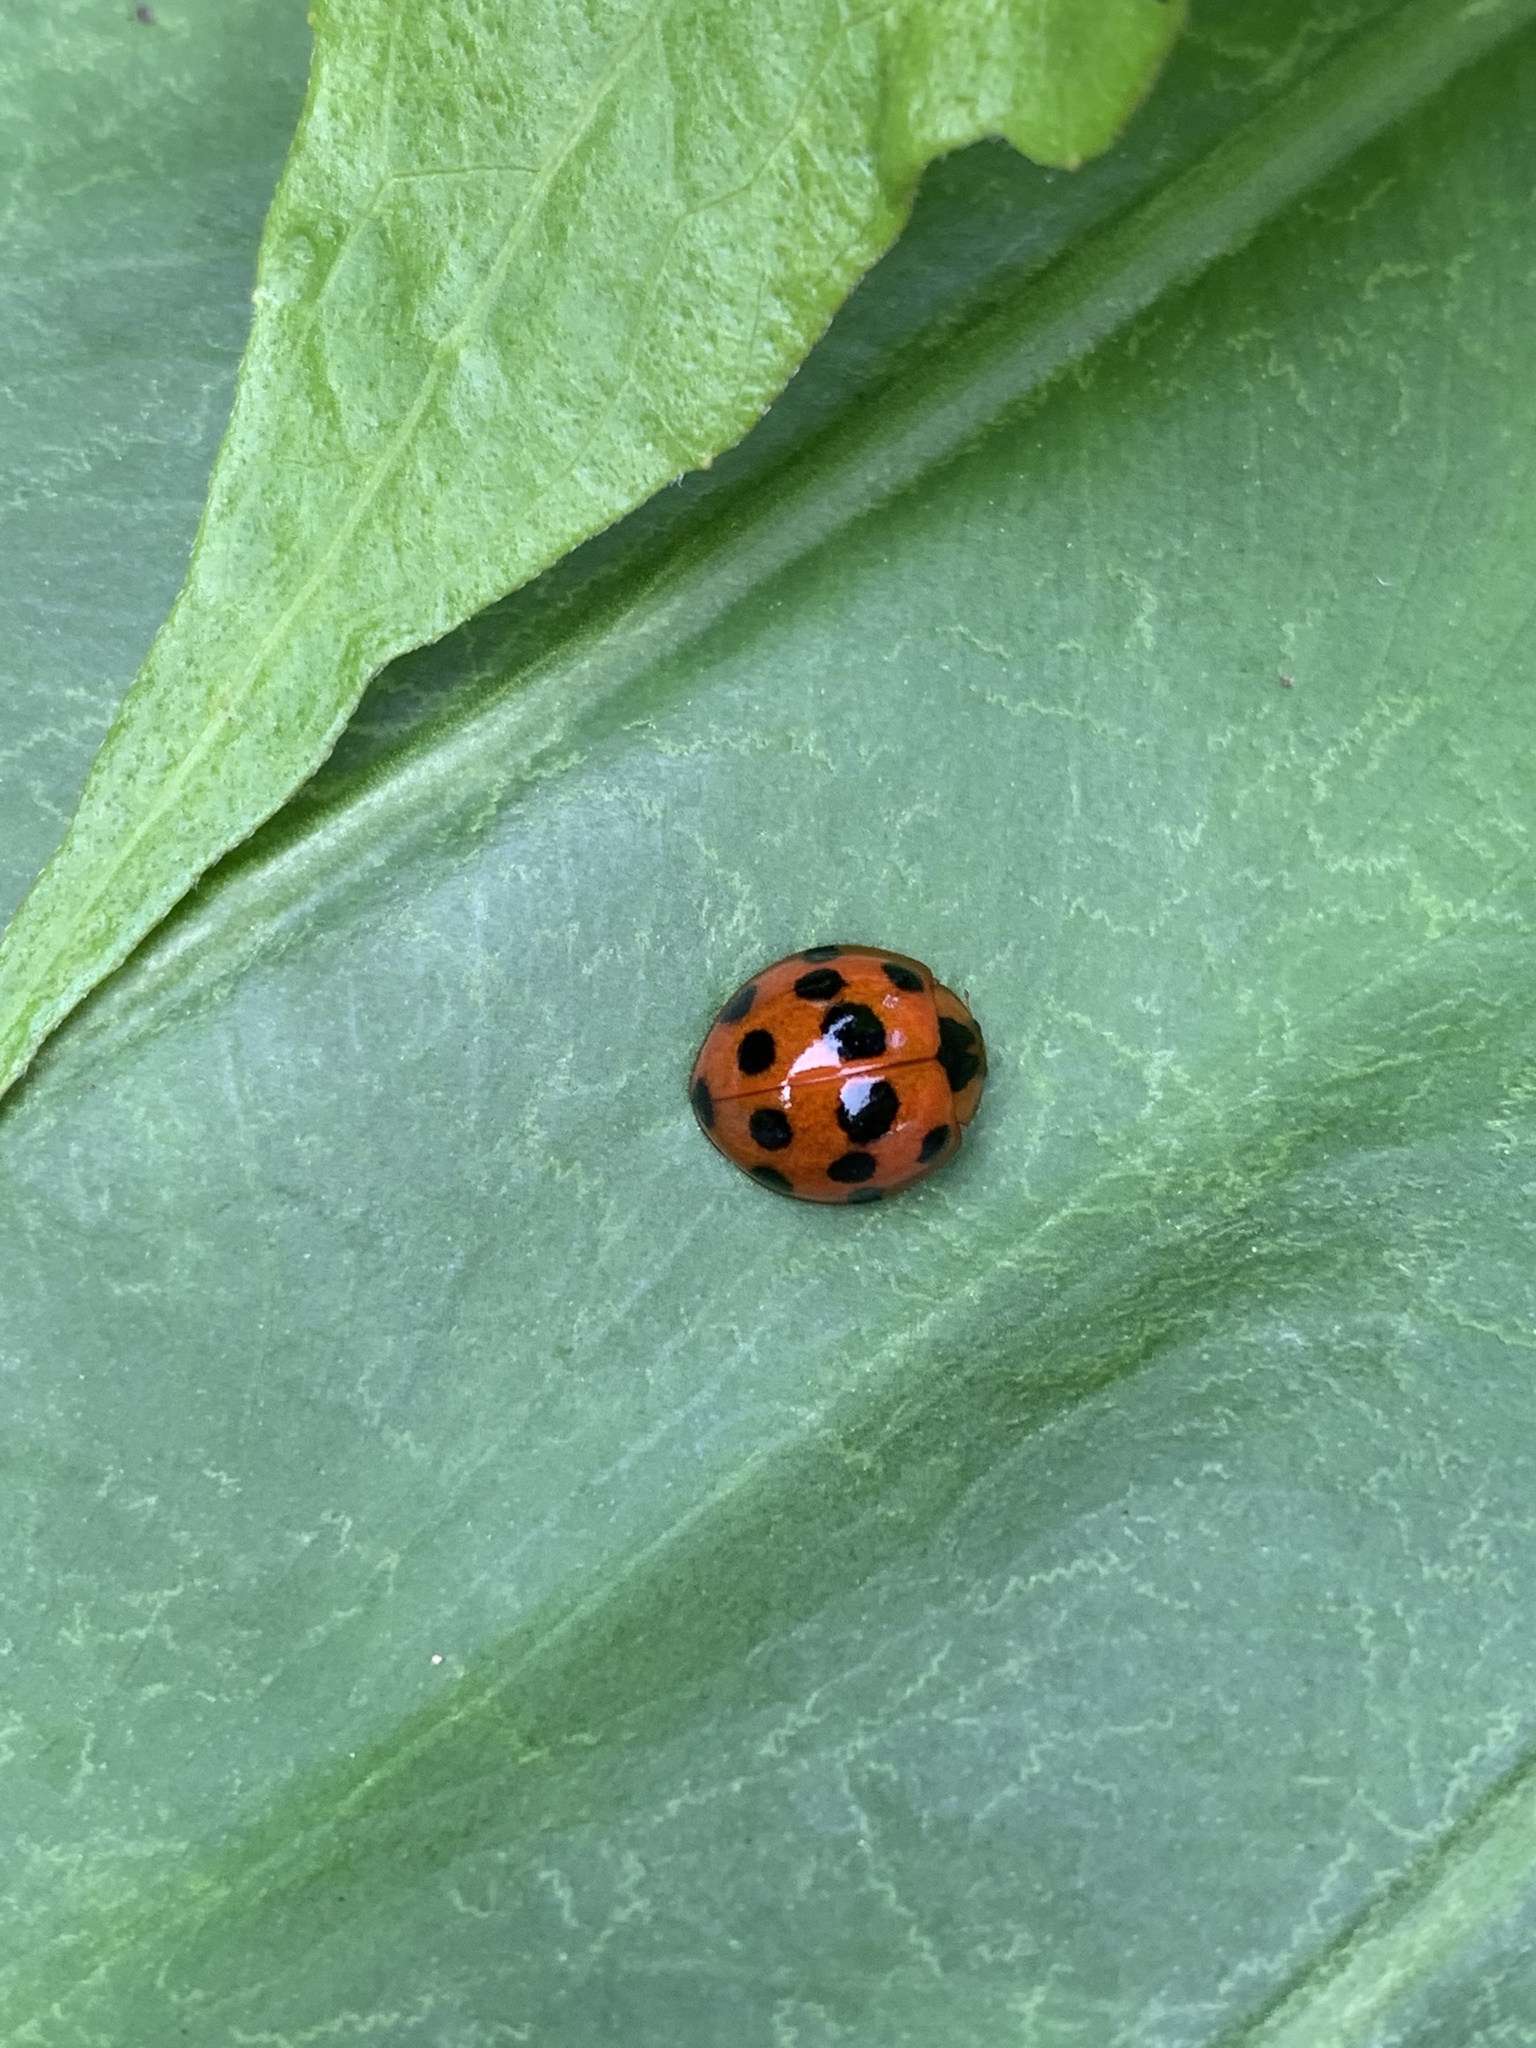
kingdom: Animalia
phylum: Arthropoda
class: Insecta
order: Coleoptera
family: Coccinellidae
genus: Harmonia
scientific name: Harmonia dimidiata
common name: Ladybird beetle
